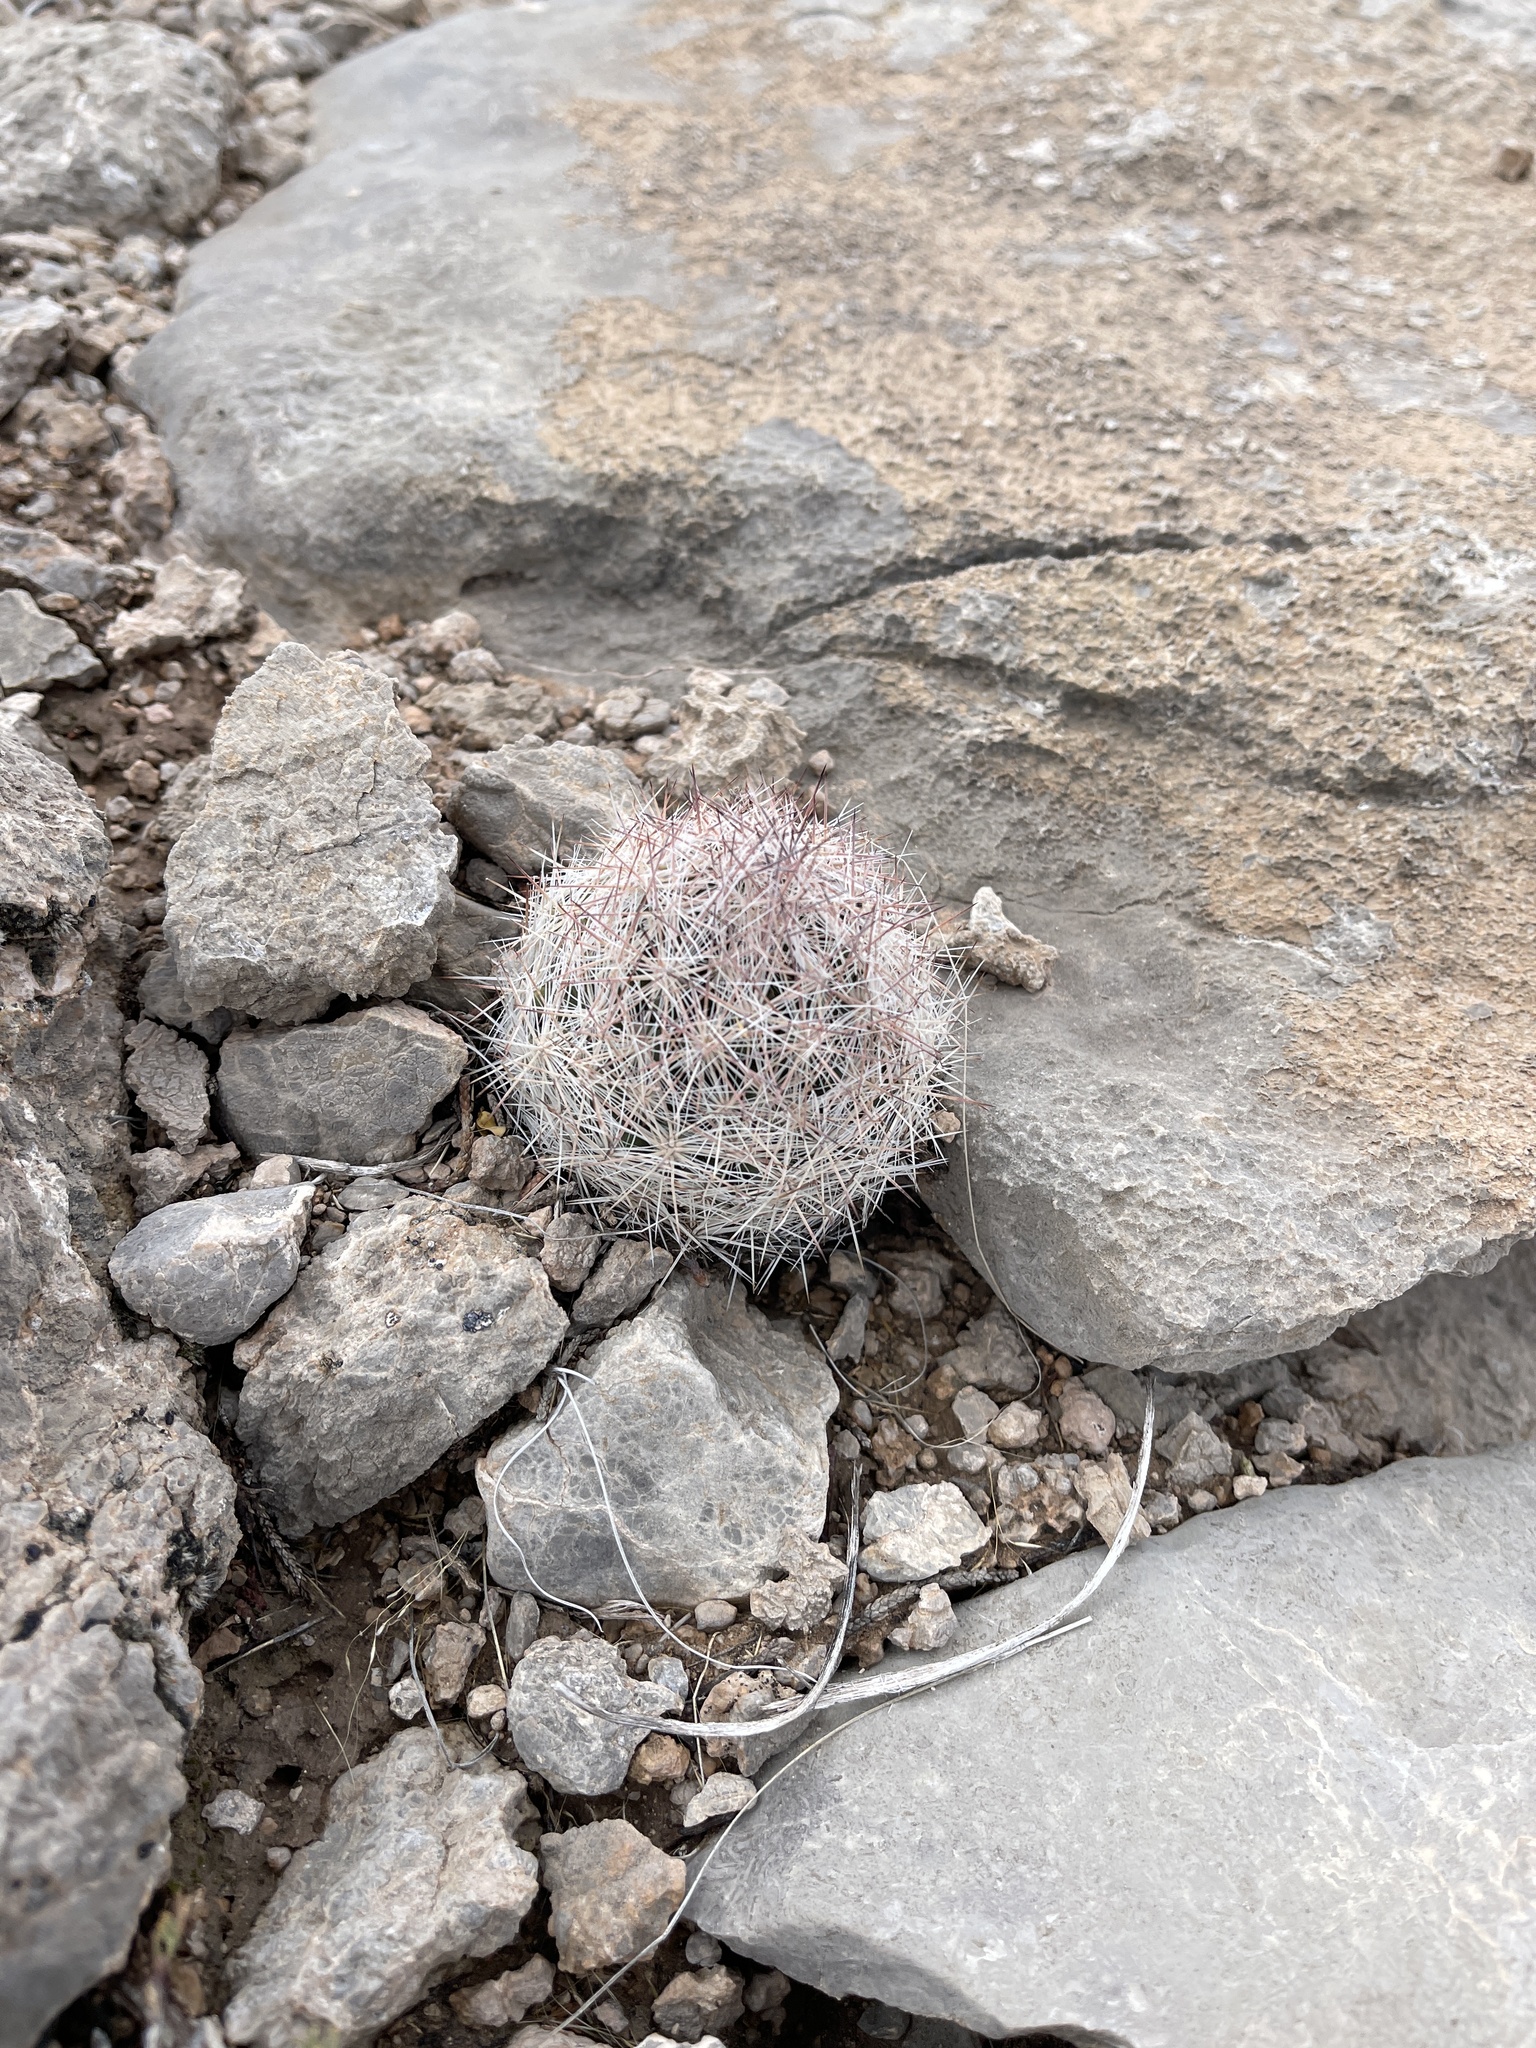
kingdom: Plantae
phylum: Tracheophyta
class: Magnoliopsida
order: Caryophyllales
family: Cactaceae
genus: Pelecyphora
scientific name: Pelecyphora vivipara
